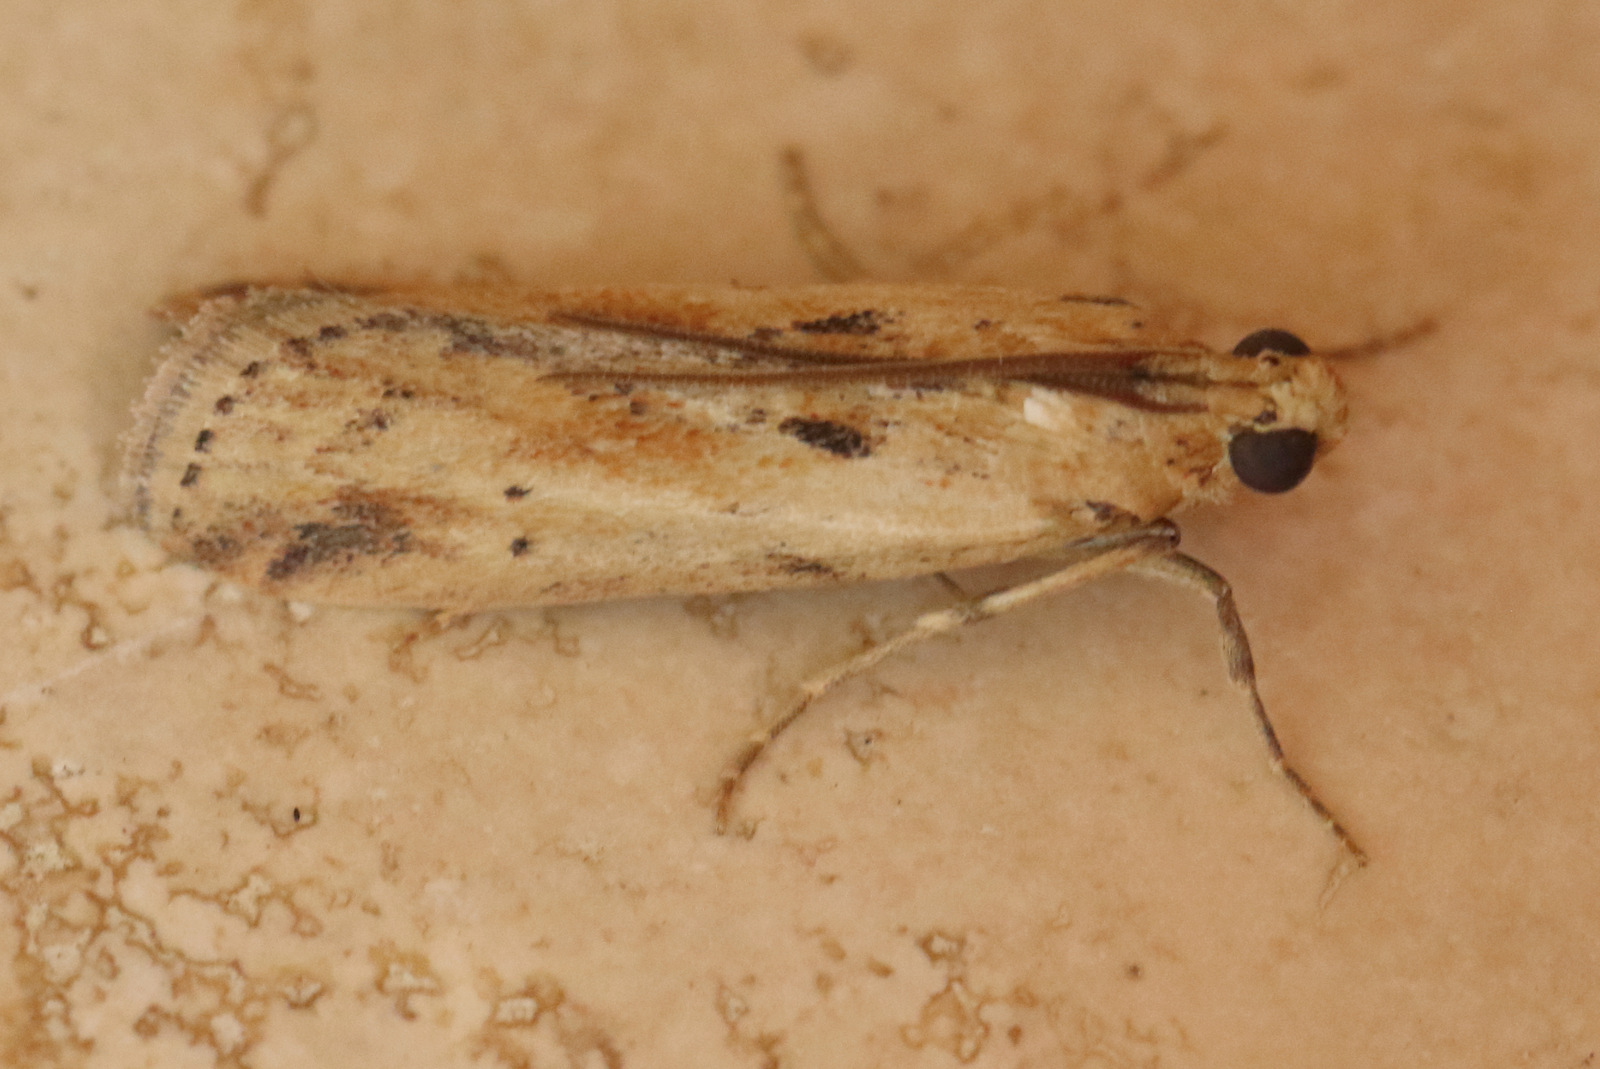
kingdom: Animalia
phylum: Arthropoda
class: Insecta
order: Lepidoptera
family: Pyralidae
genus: Morosaphycita
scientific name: Morosaphycita oculiferella
